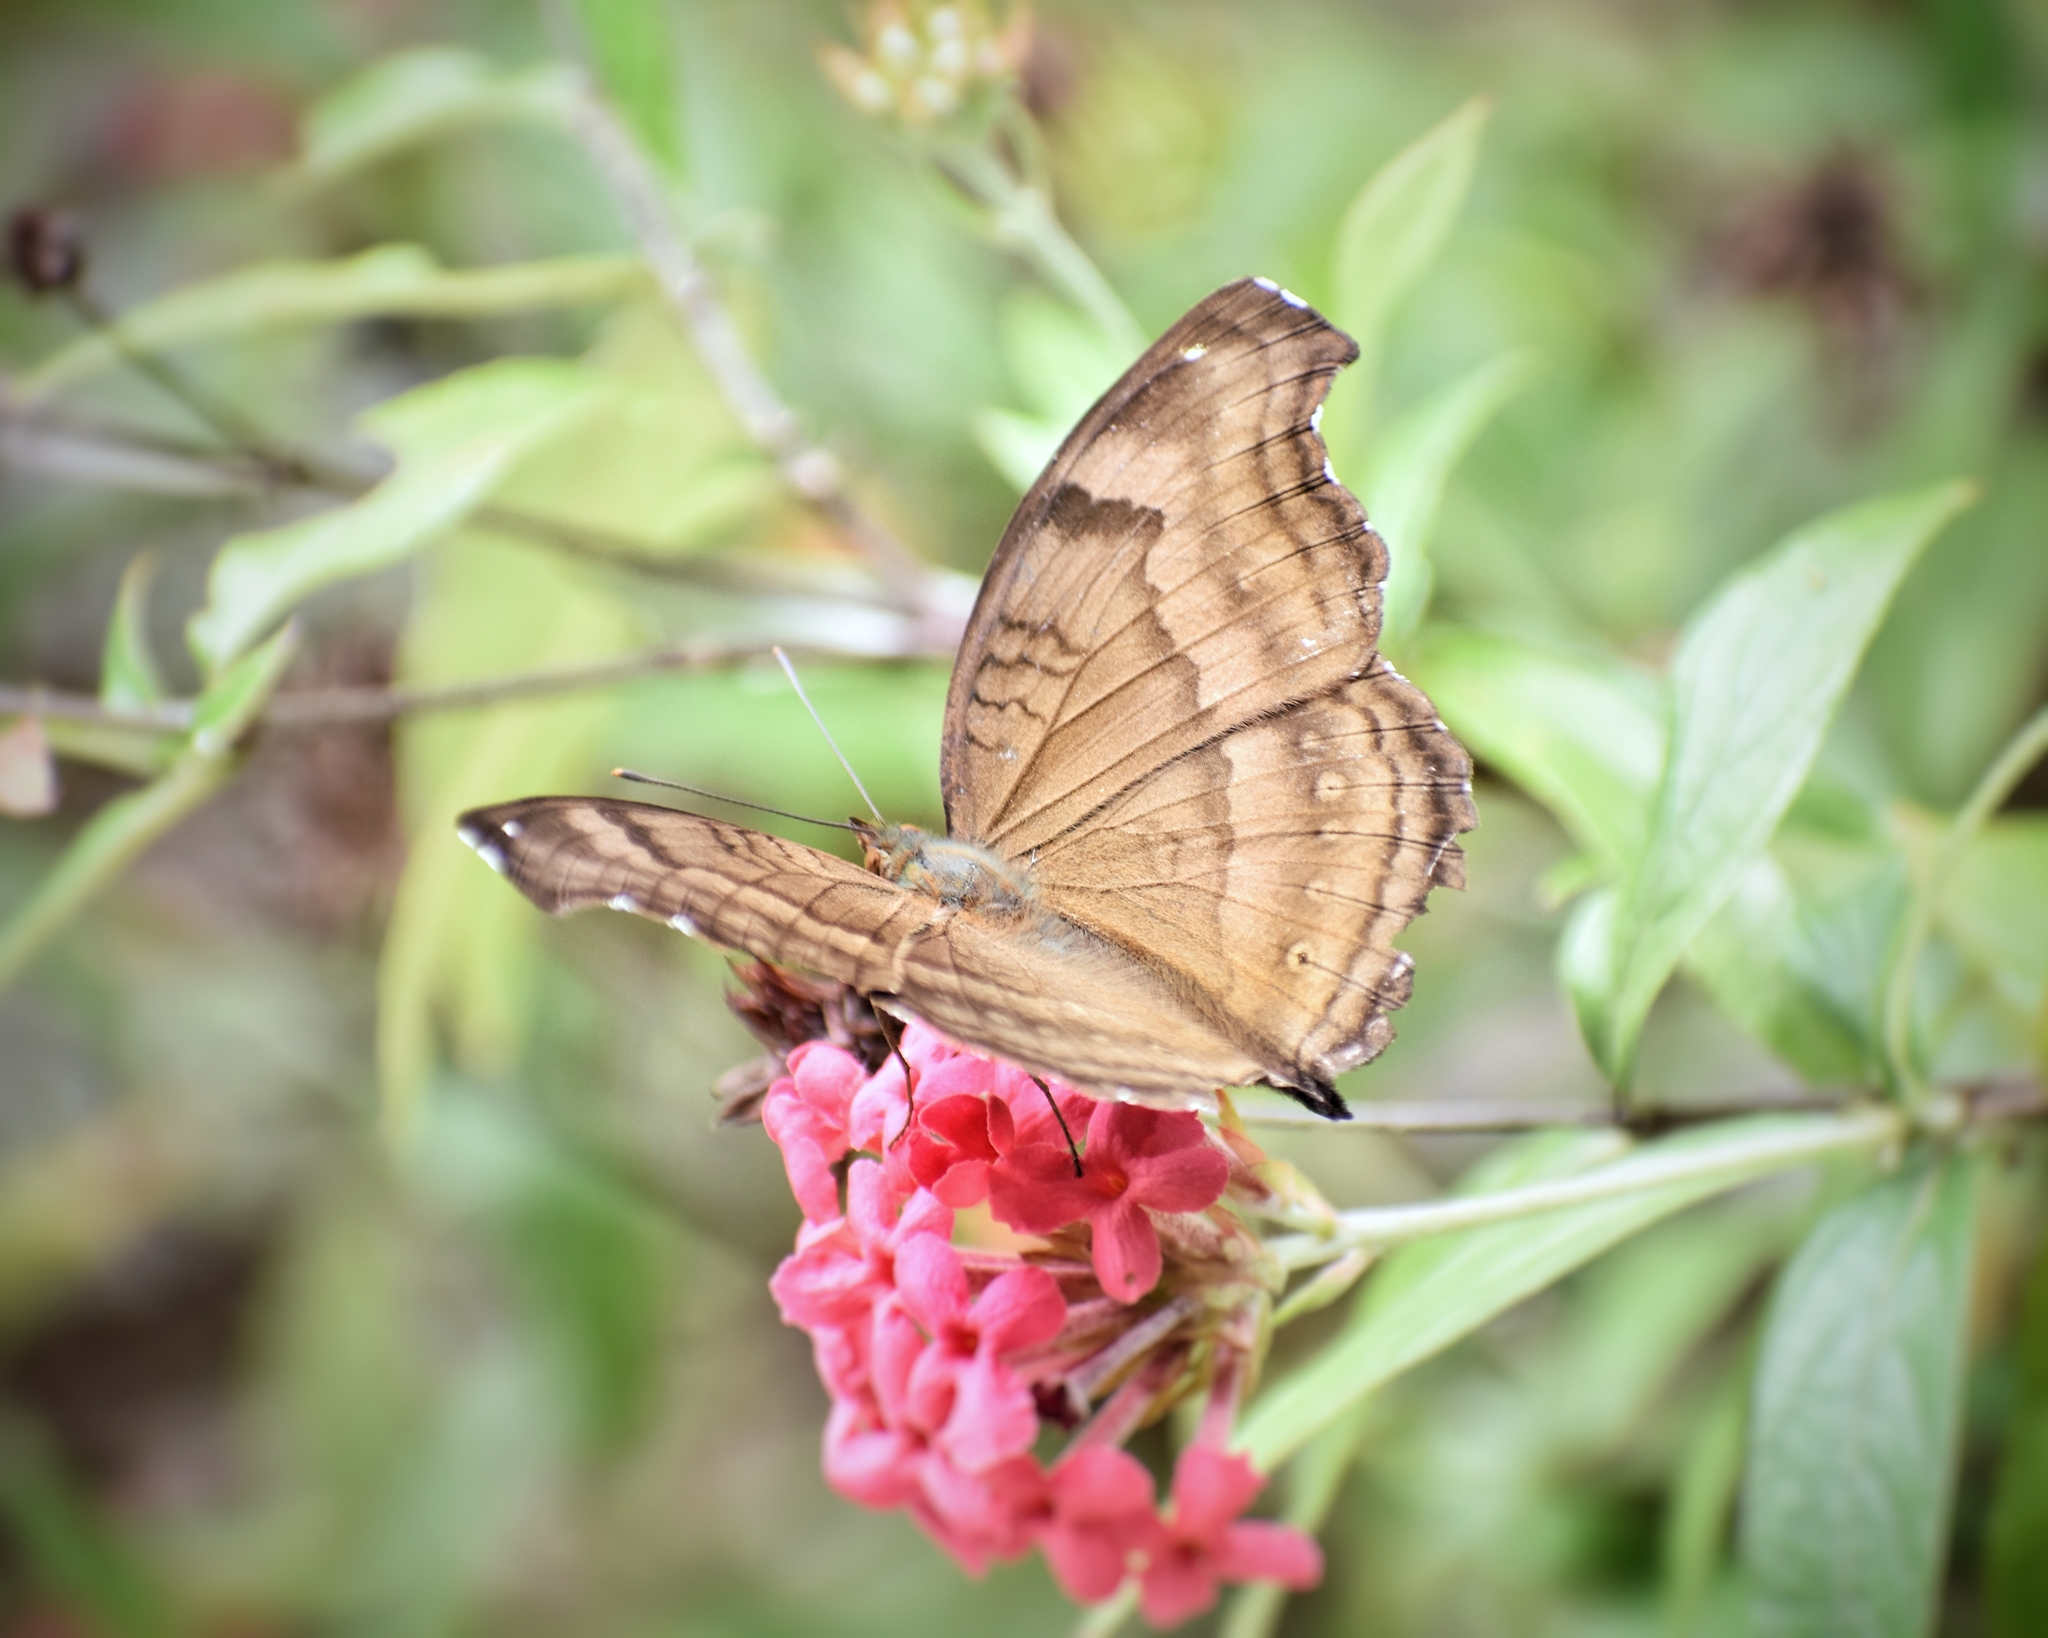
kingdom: Animalia
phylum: Arthropoda
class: Insecta
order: Lepidoptera
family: Nymphalidae
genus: Junonia
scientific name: Junonia iphita
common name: Chocolate pansy
